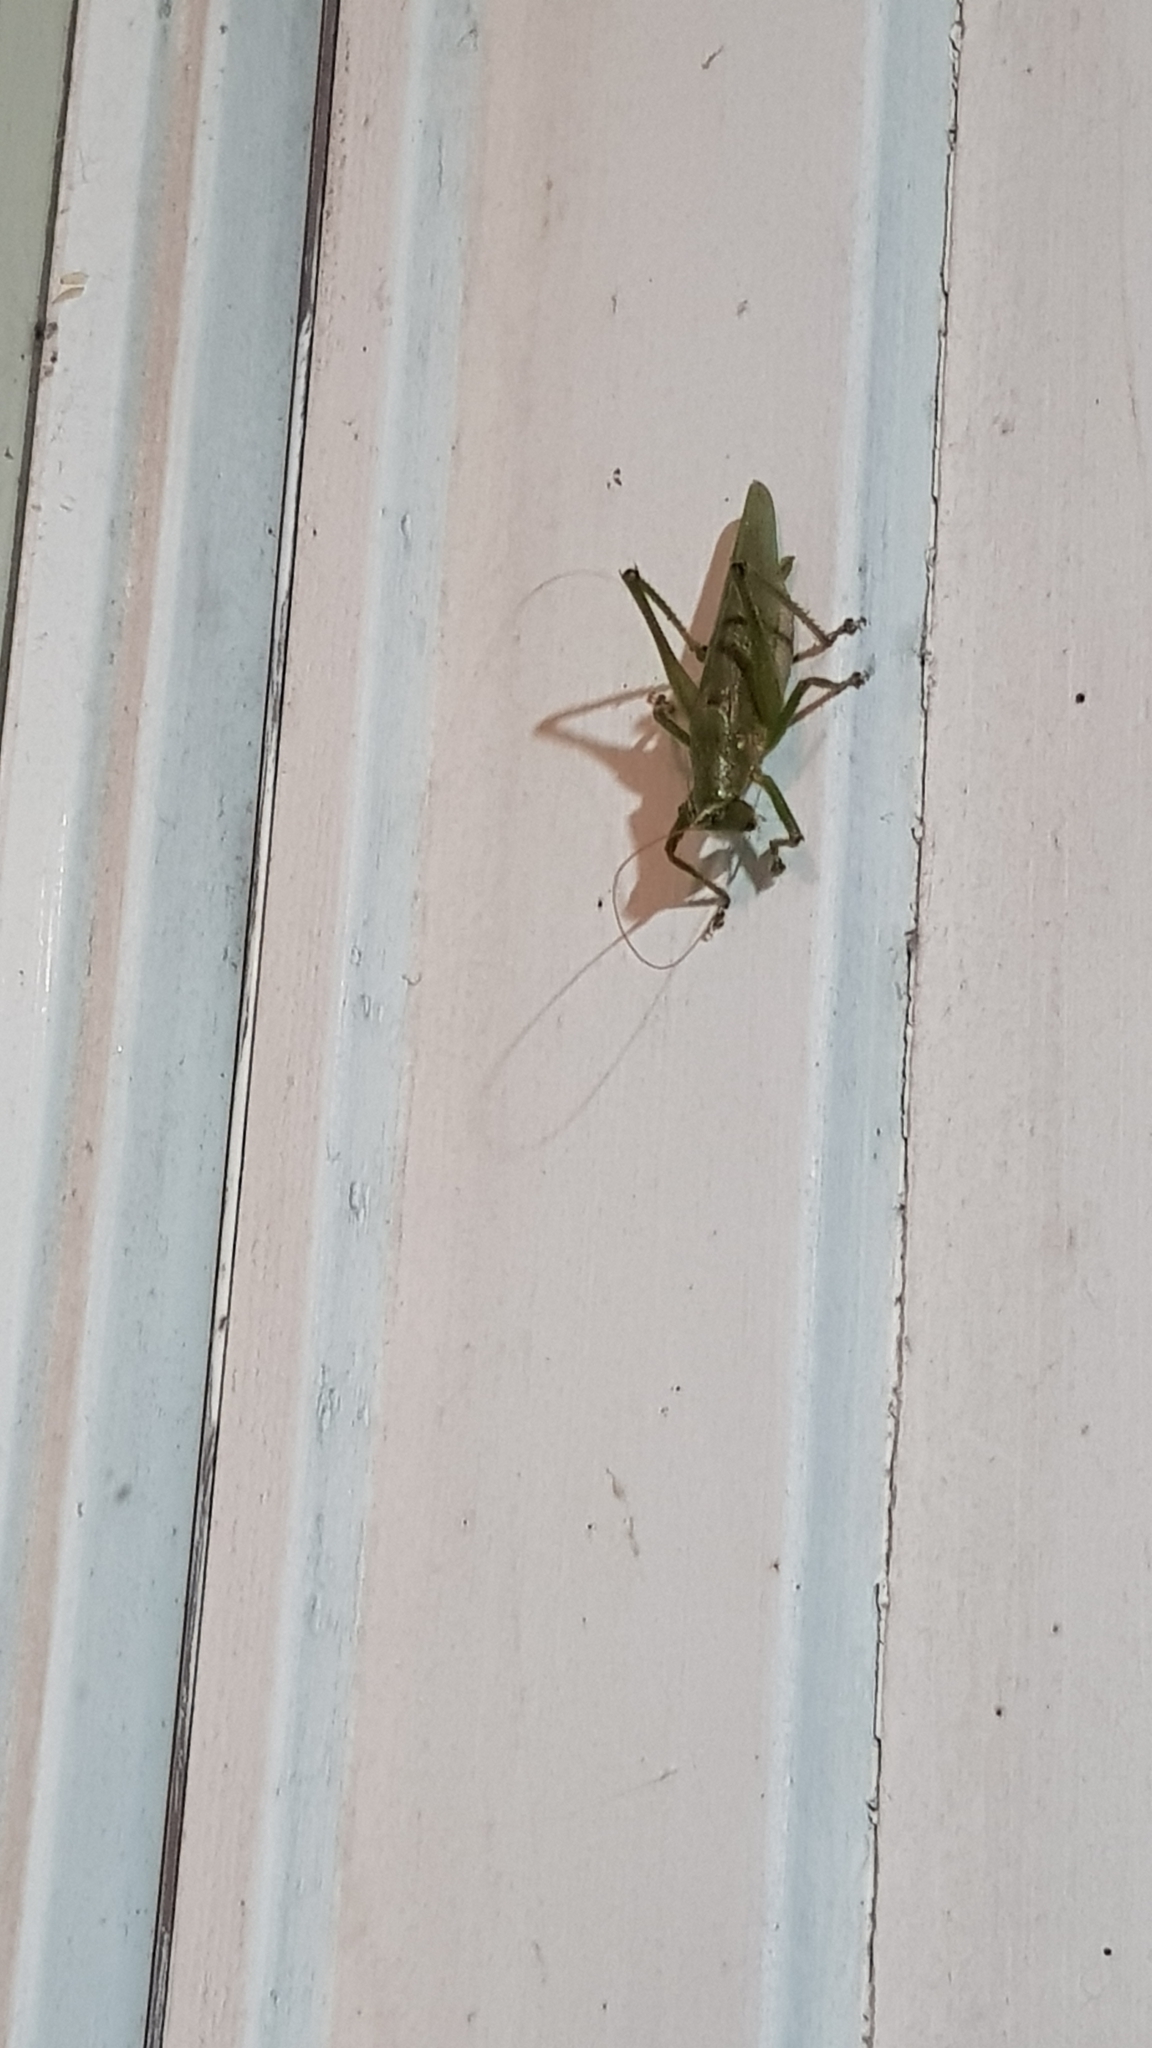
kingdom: Animalia
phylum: Arthropoda
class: Insecta
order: Orthoptera
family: Tettigoniidae
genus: Austrosalomona
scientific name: Austrosalomona falcata
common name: Olive-green coastal katydid
